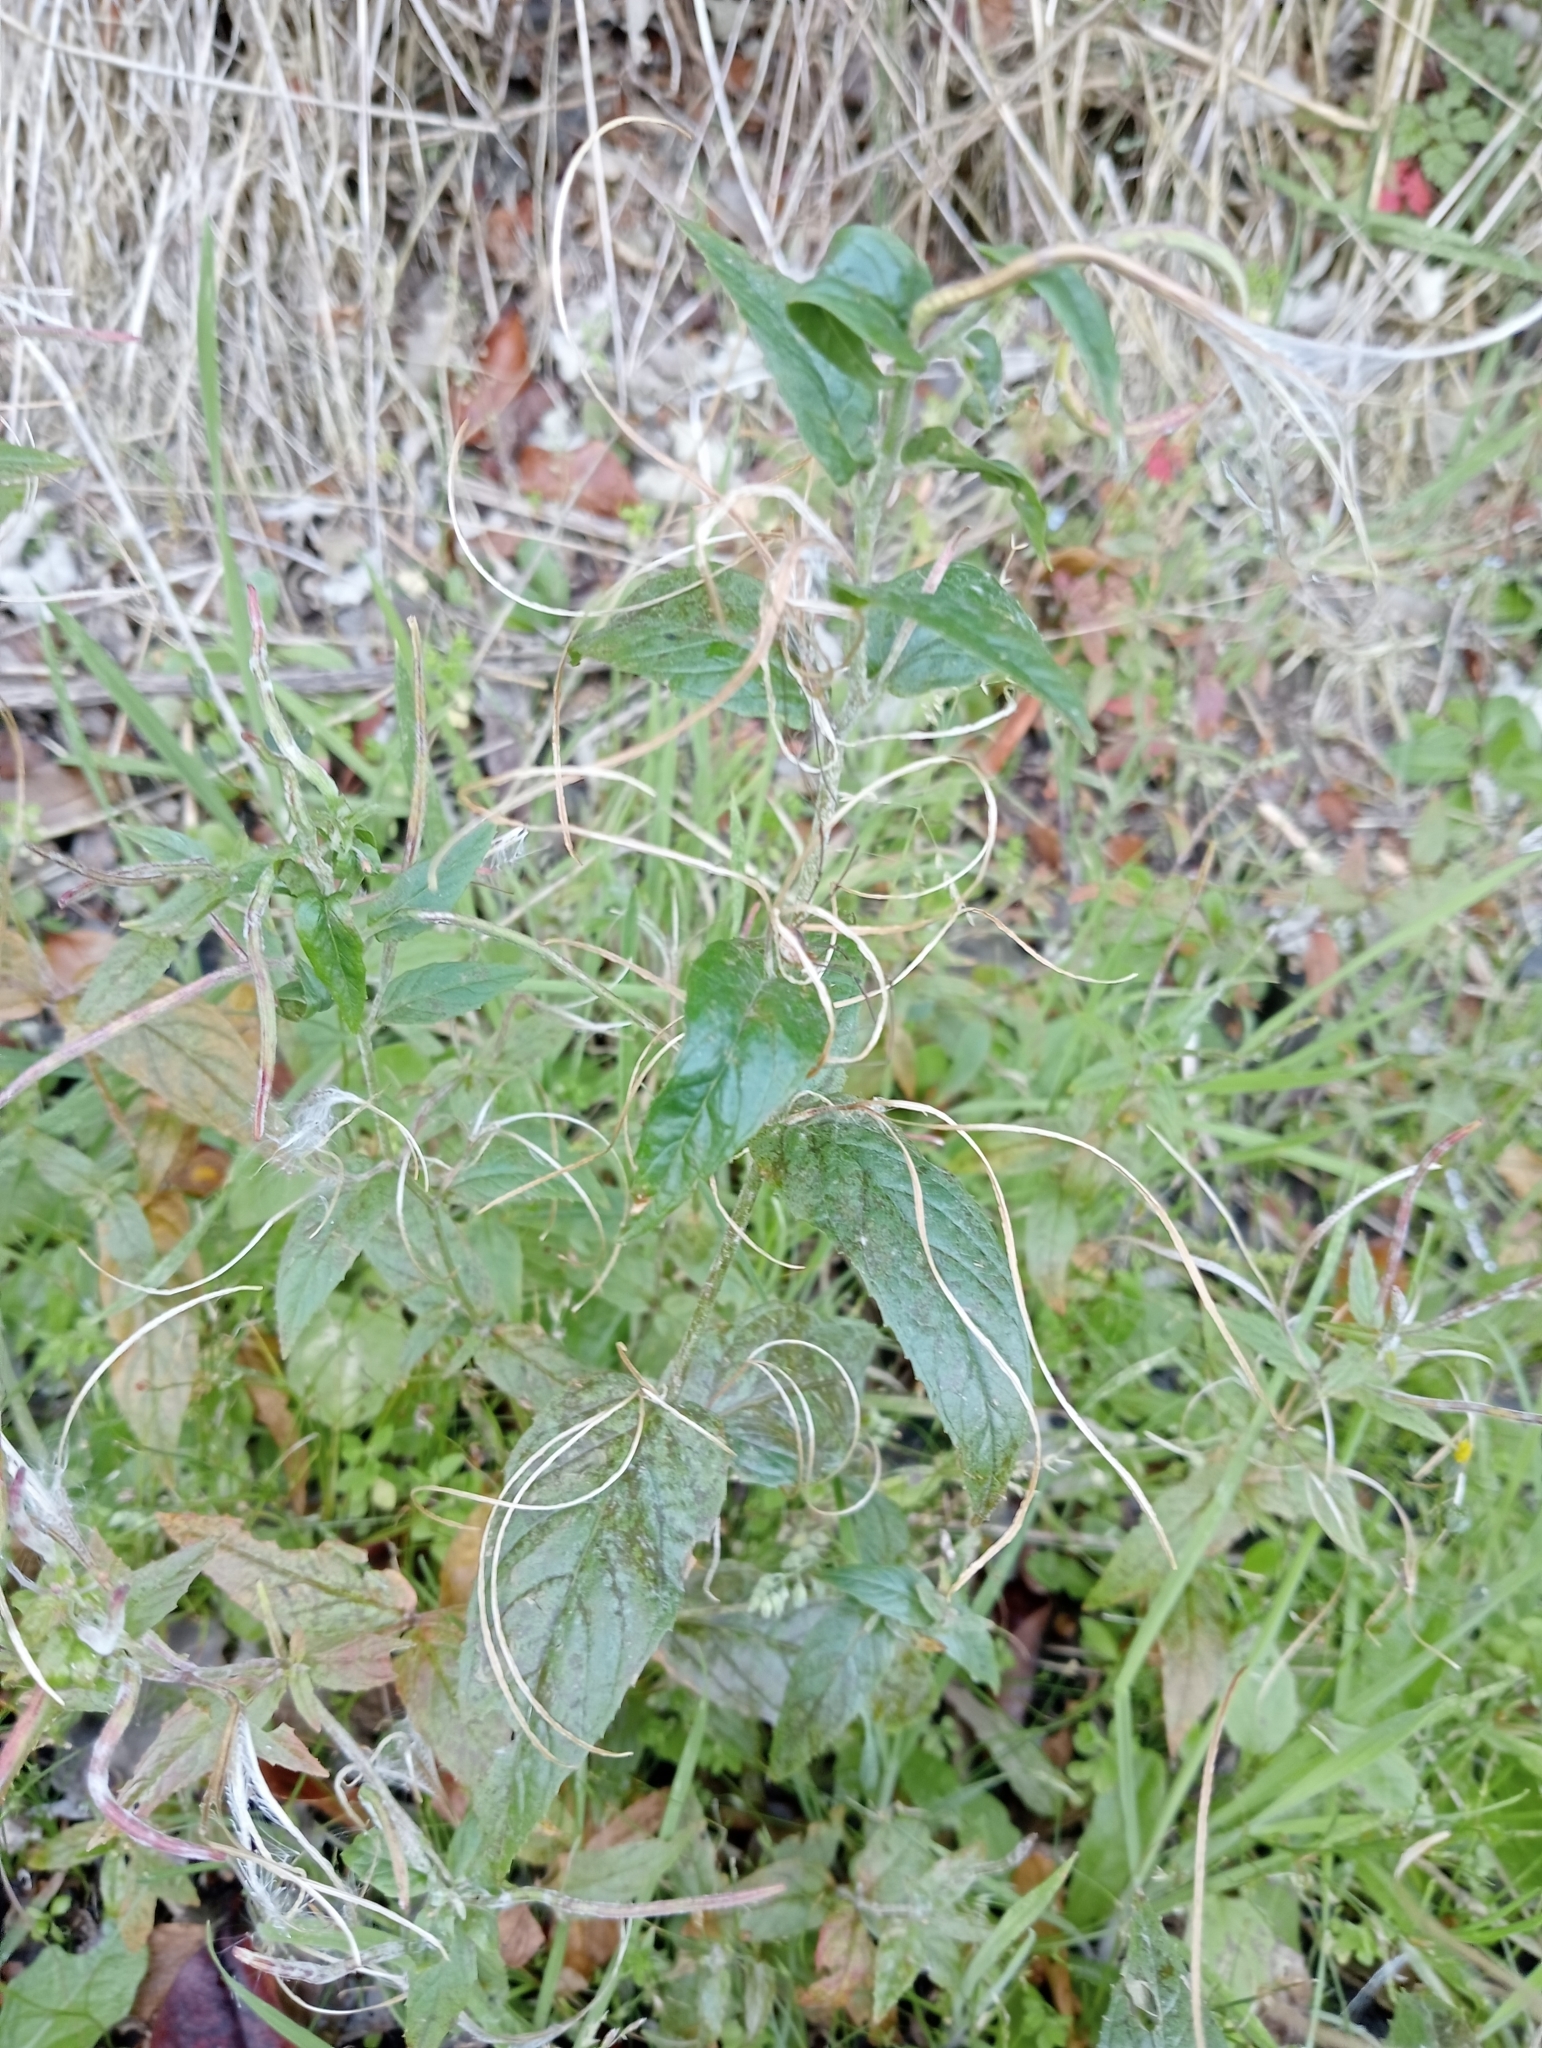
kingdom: Plantae
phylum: Tracheophyta
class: Magnoliopsida
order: Myrtales
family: Onagraceae
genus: Epilobium
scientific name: Epilobium ciliatum
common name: American willowherb
